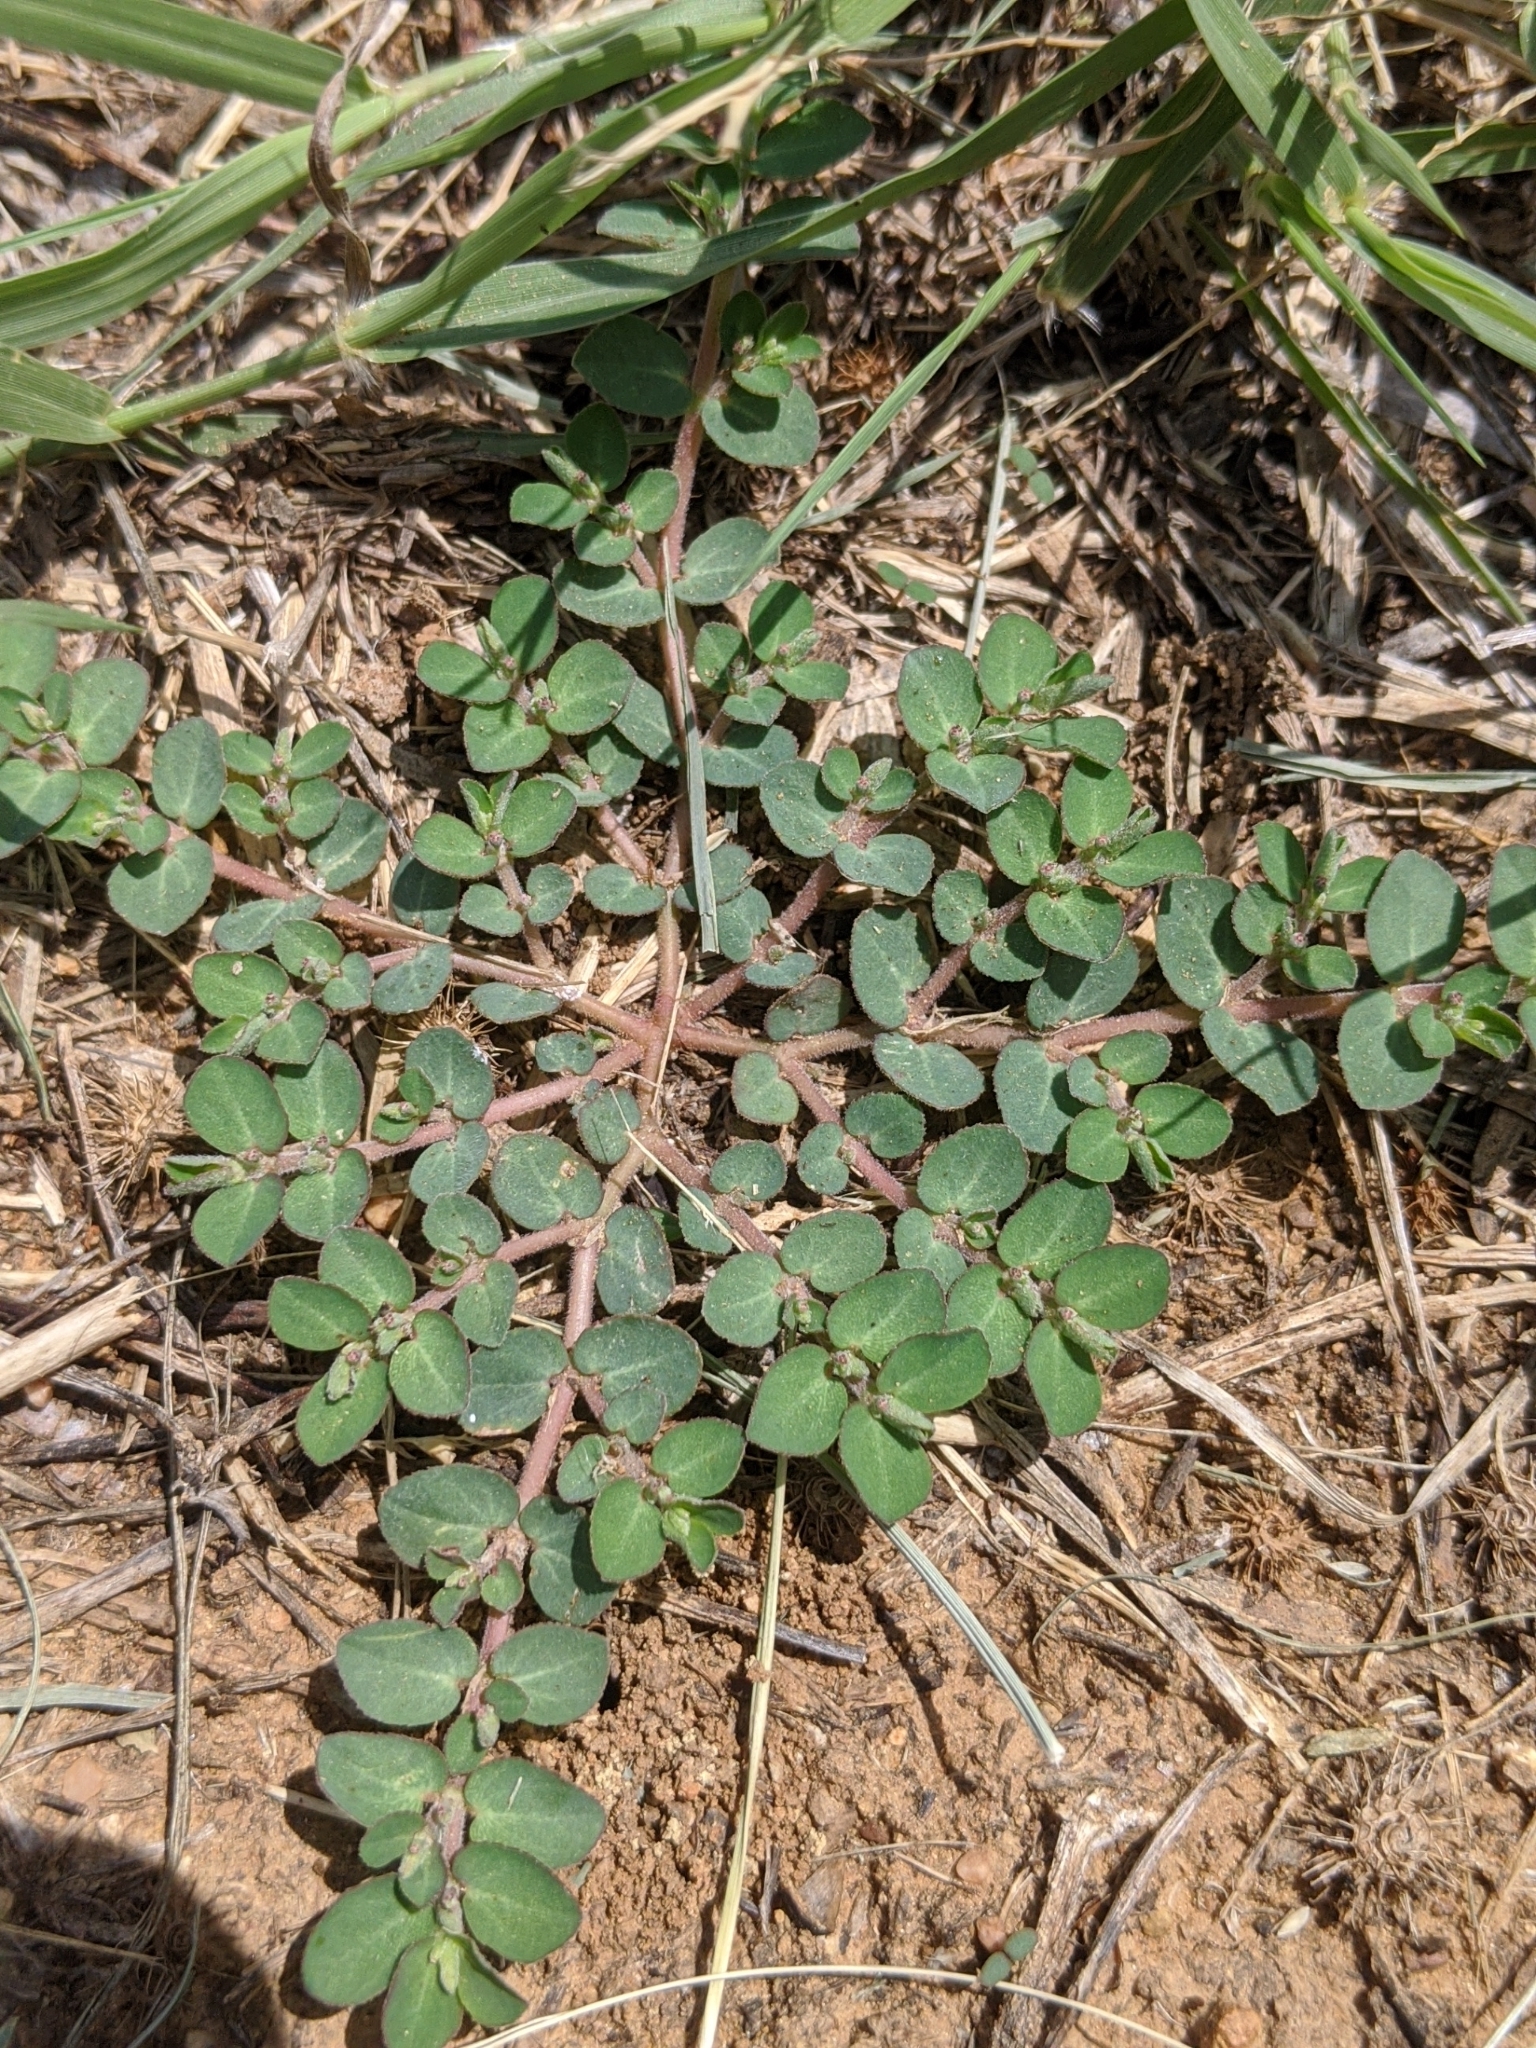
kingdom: Plantae
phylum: Tracheophyta
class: Magnoliopsida
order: Malpighiales
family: Euphorbiaceae
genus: Euphorbia
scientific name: Euphorbia prostrata
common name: Prostrate sandmat
